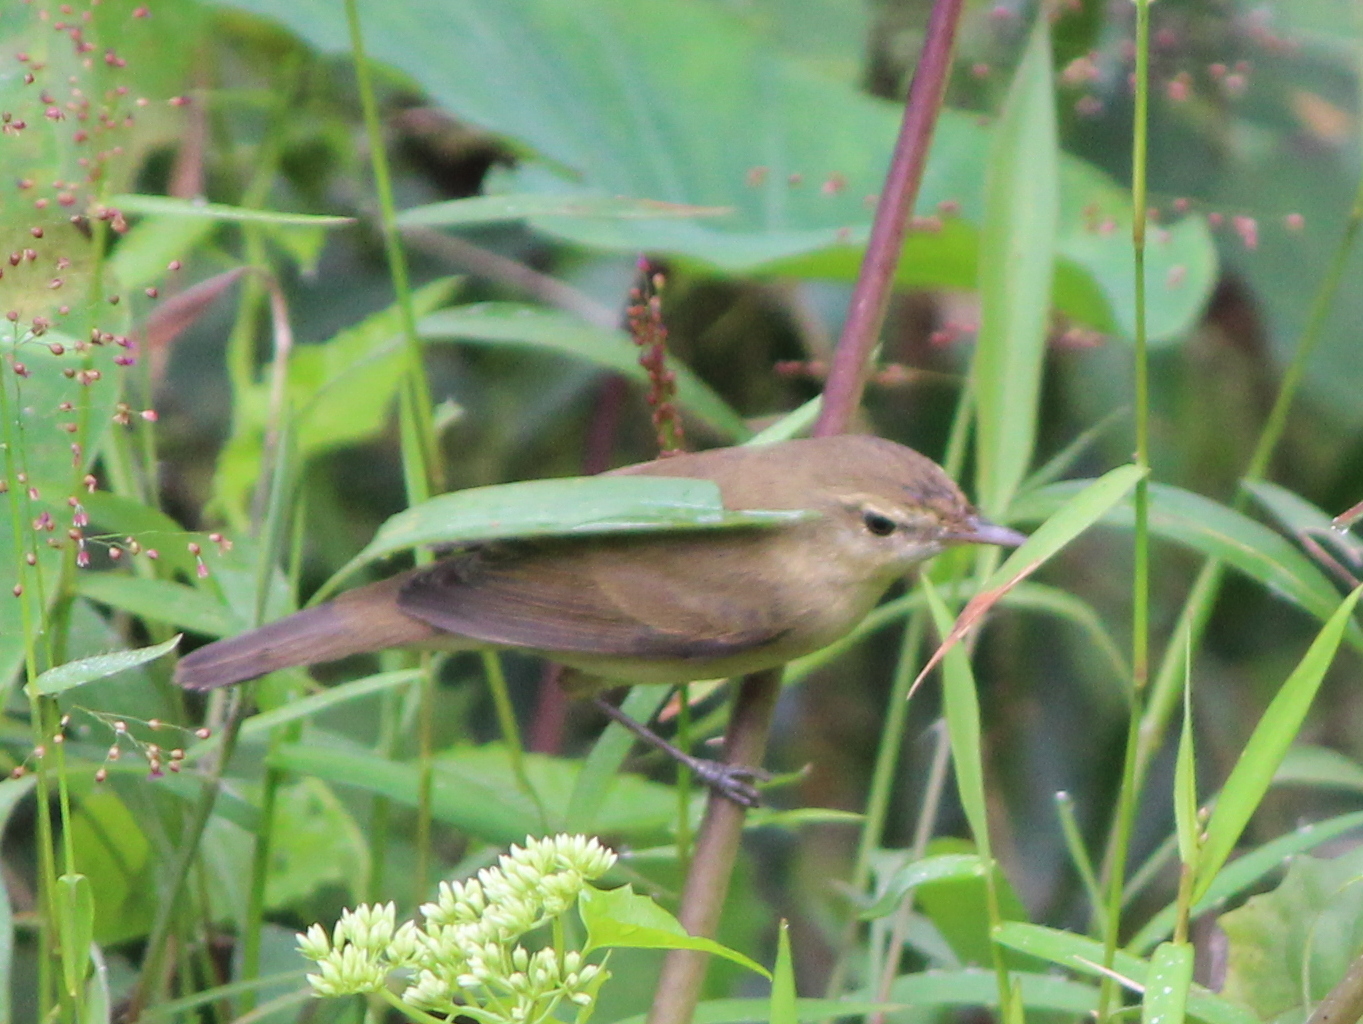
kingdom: Animalia
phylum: Chordata
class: Aves
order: Passeriformes
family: Acrocephalidae
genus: Acrocephalus
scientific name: Acrocephalus dumetorum
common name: Blyth's reed warbler
